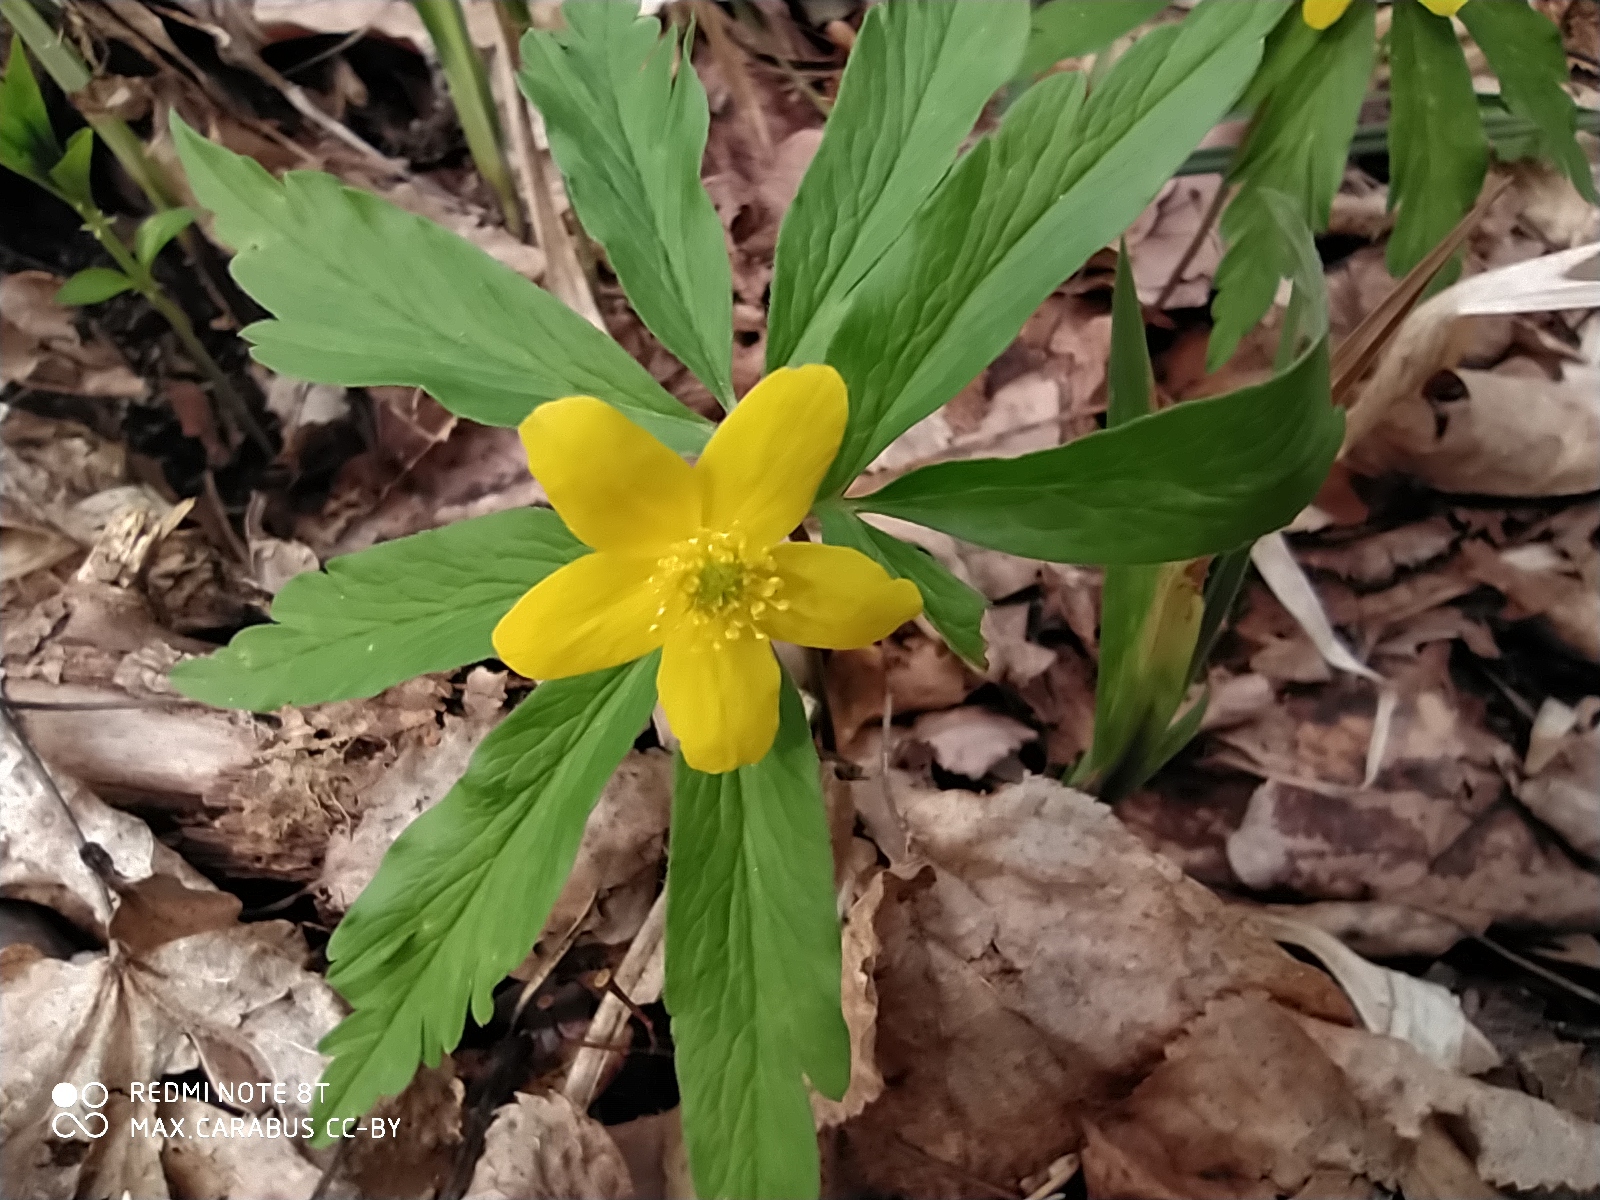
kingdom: Plantae
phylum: Tracheophyta
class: Magnoliopsida
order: Ranunculales
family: Ranunculaceae
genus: Anemone
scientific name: Anemone ranunculoides
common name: Yellow anemone
